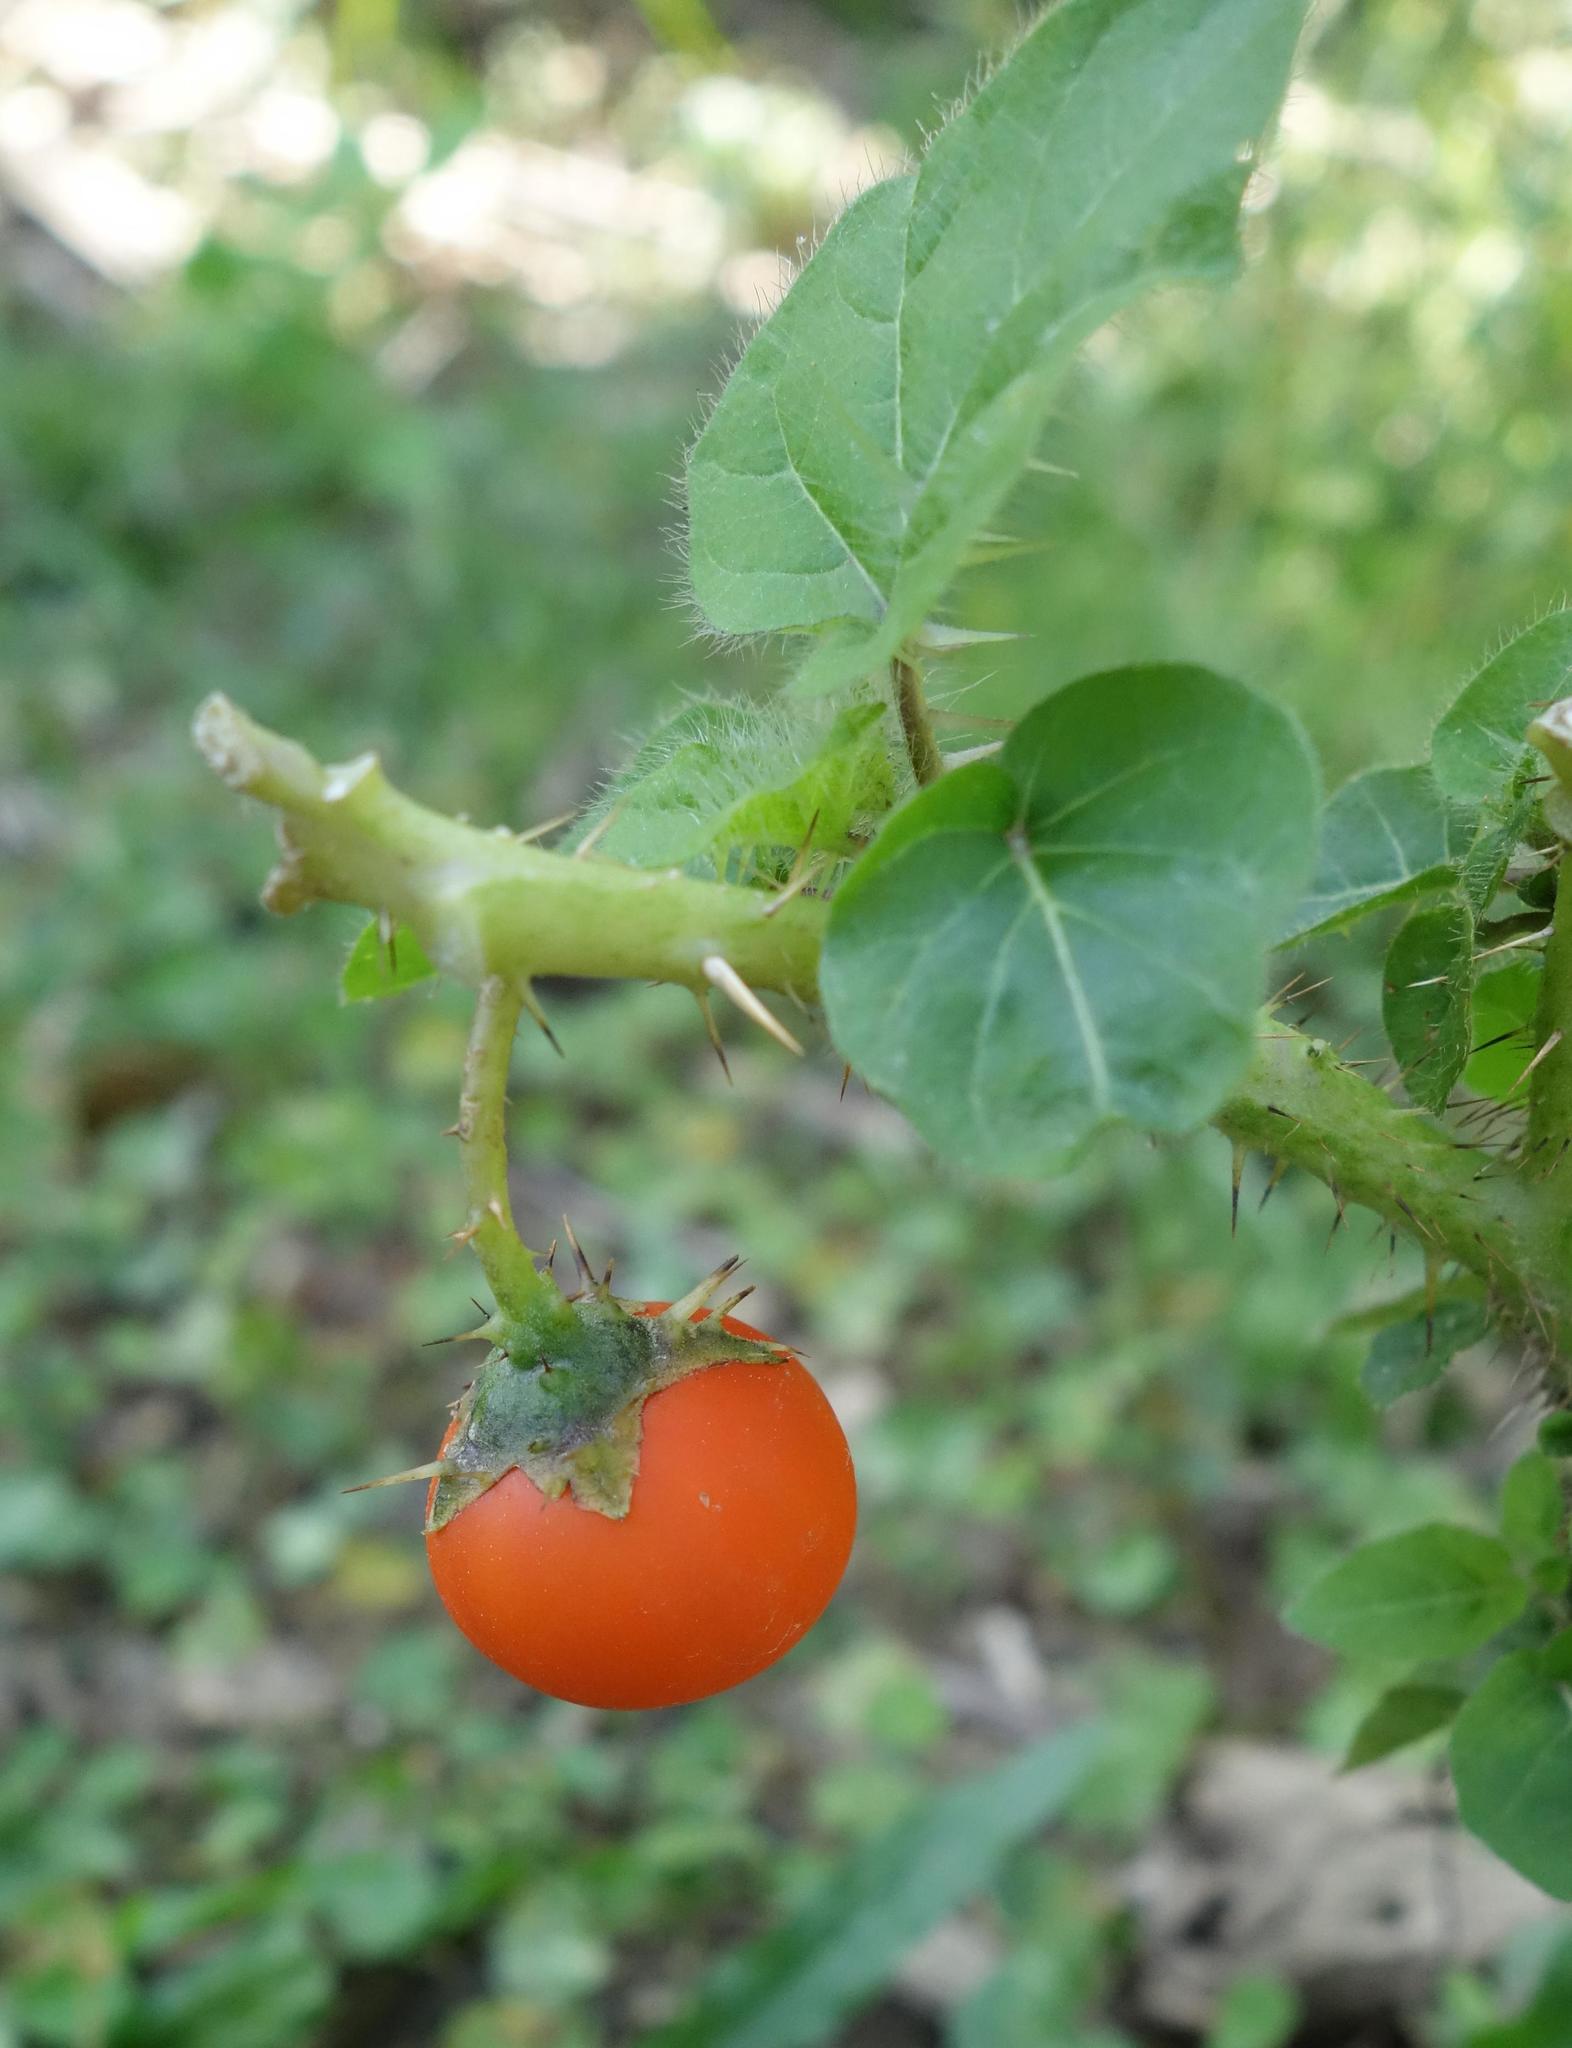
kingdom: Plantae
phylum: Tracheophyta
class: Magnoliopsida
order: Solanales
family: Solanaceae
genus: Solanum
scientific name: Solanum capsicoides
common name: Cockroach berry
